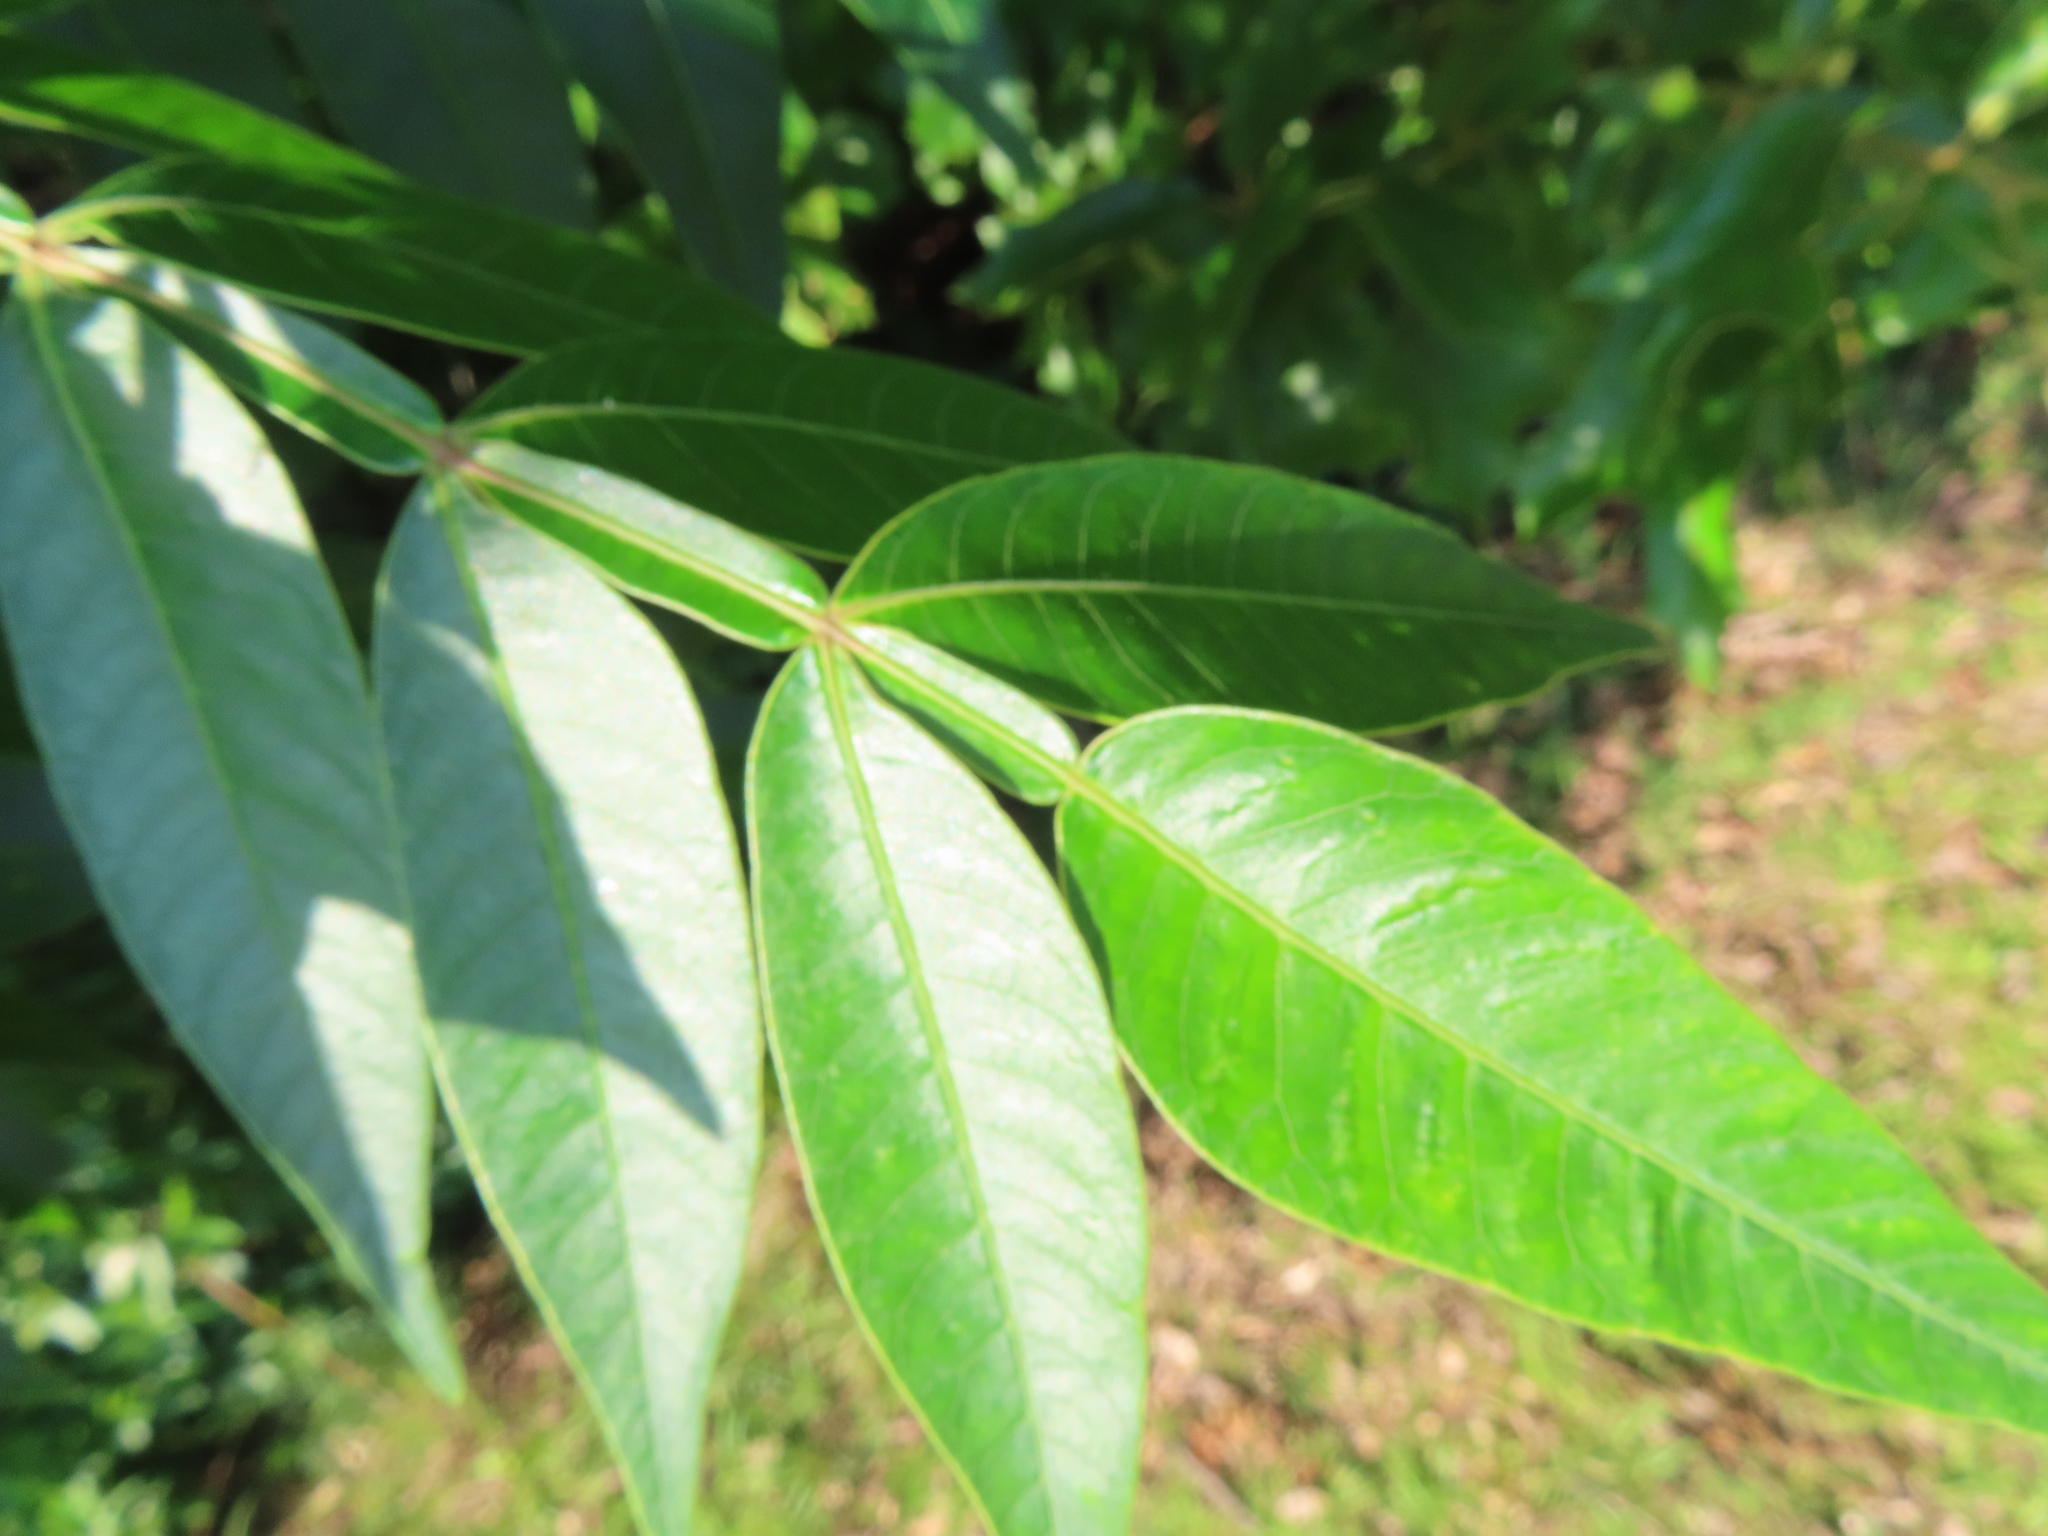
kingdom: Plantae
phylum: Tracheophyta
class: Magnoliopsida
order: Sapindales
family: Anacardiaceae
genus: Rhus
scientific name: Rhus copallina
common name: Shining sumac
